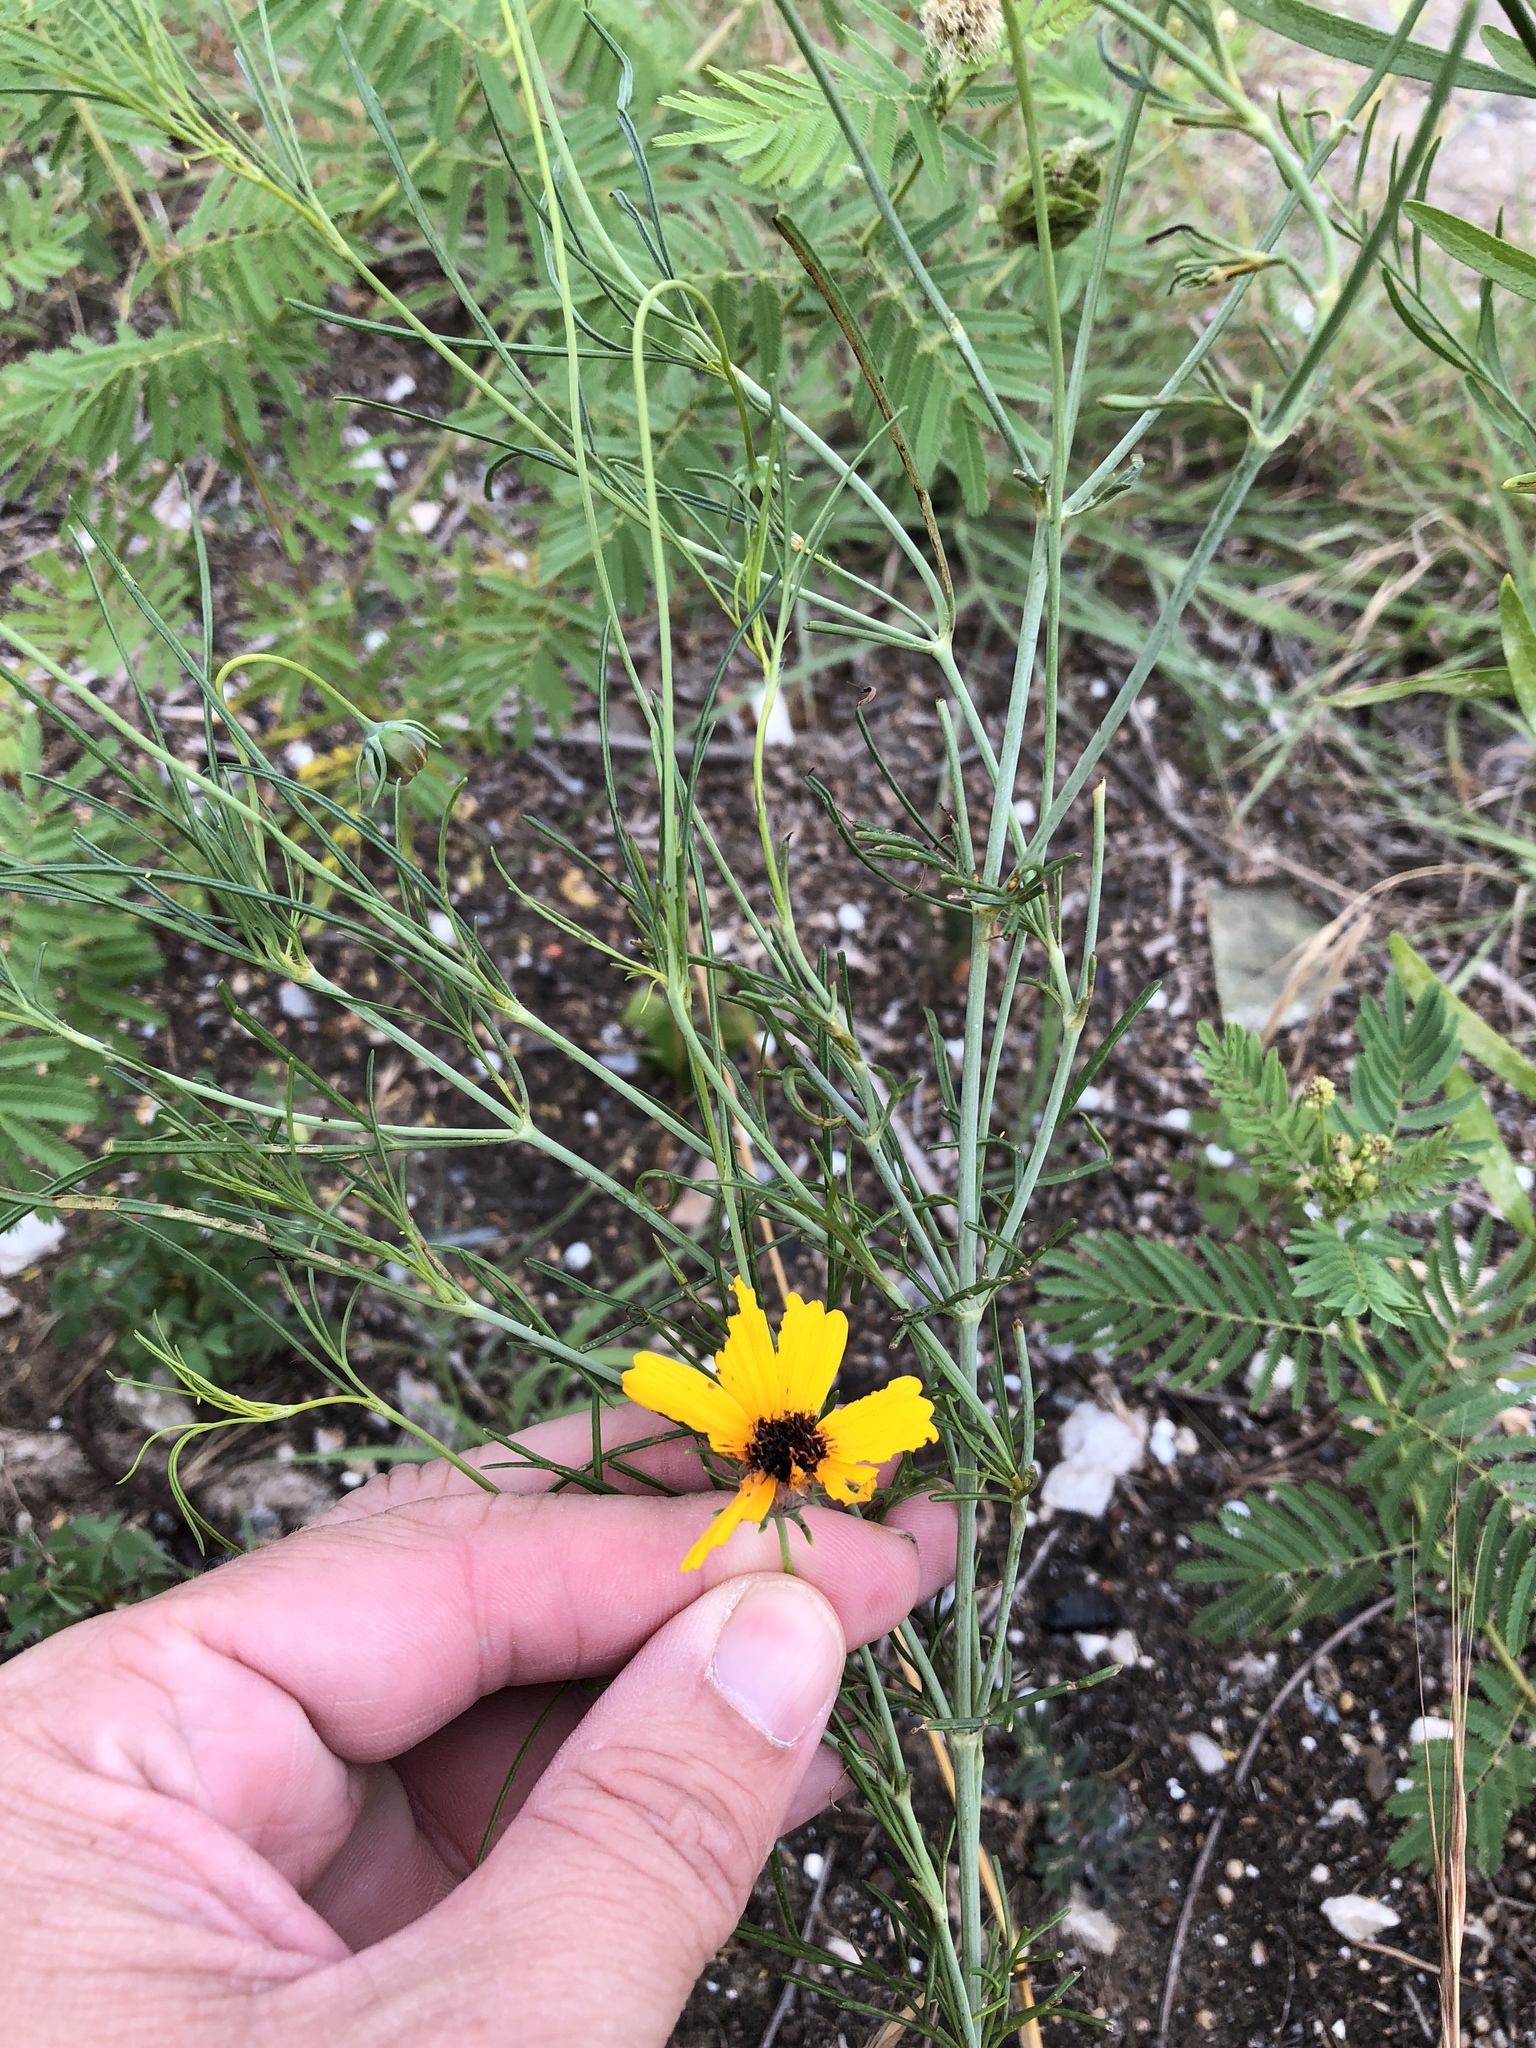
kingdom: Plantae
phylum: Tracheophyta
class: Magnoliopsida
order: Asterales
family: Asteraceae
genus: Thelesperma
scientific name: Thelesperma filifolium
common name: Stiff greenthread
